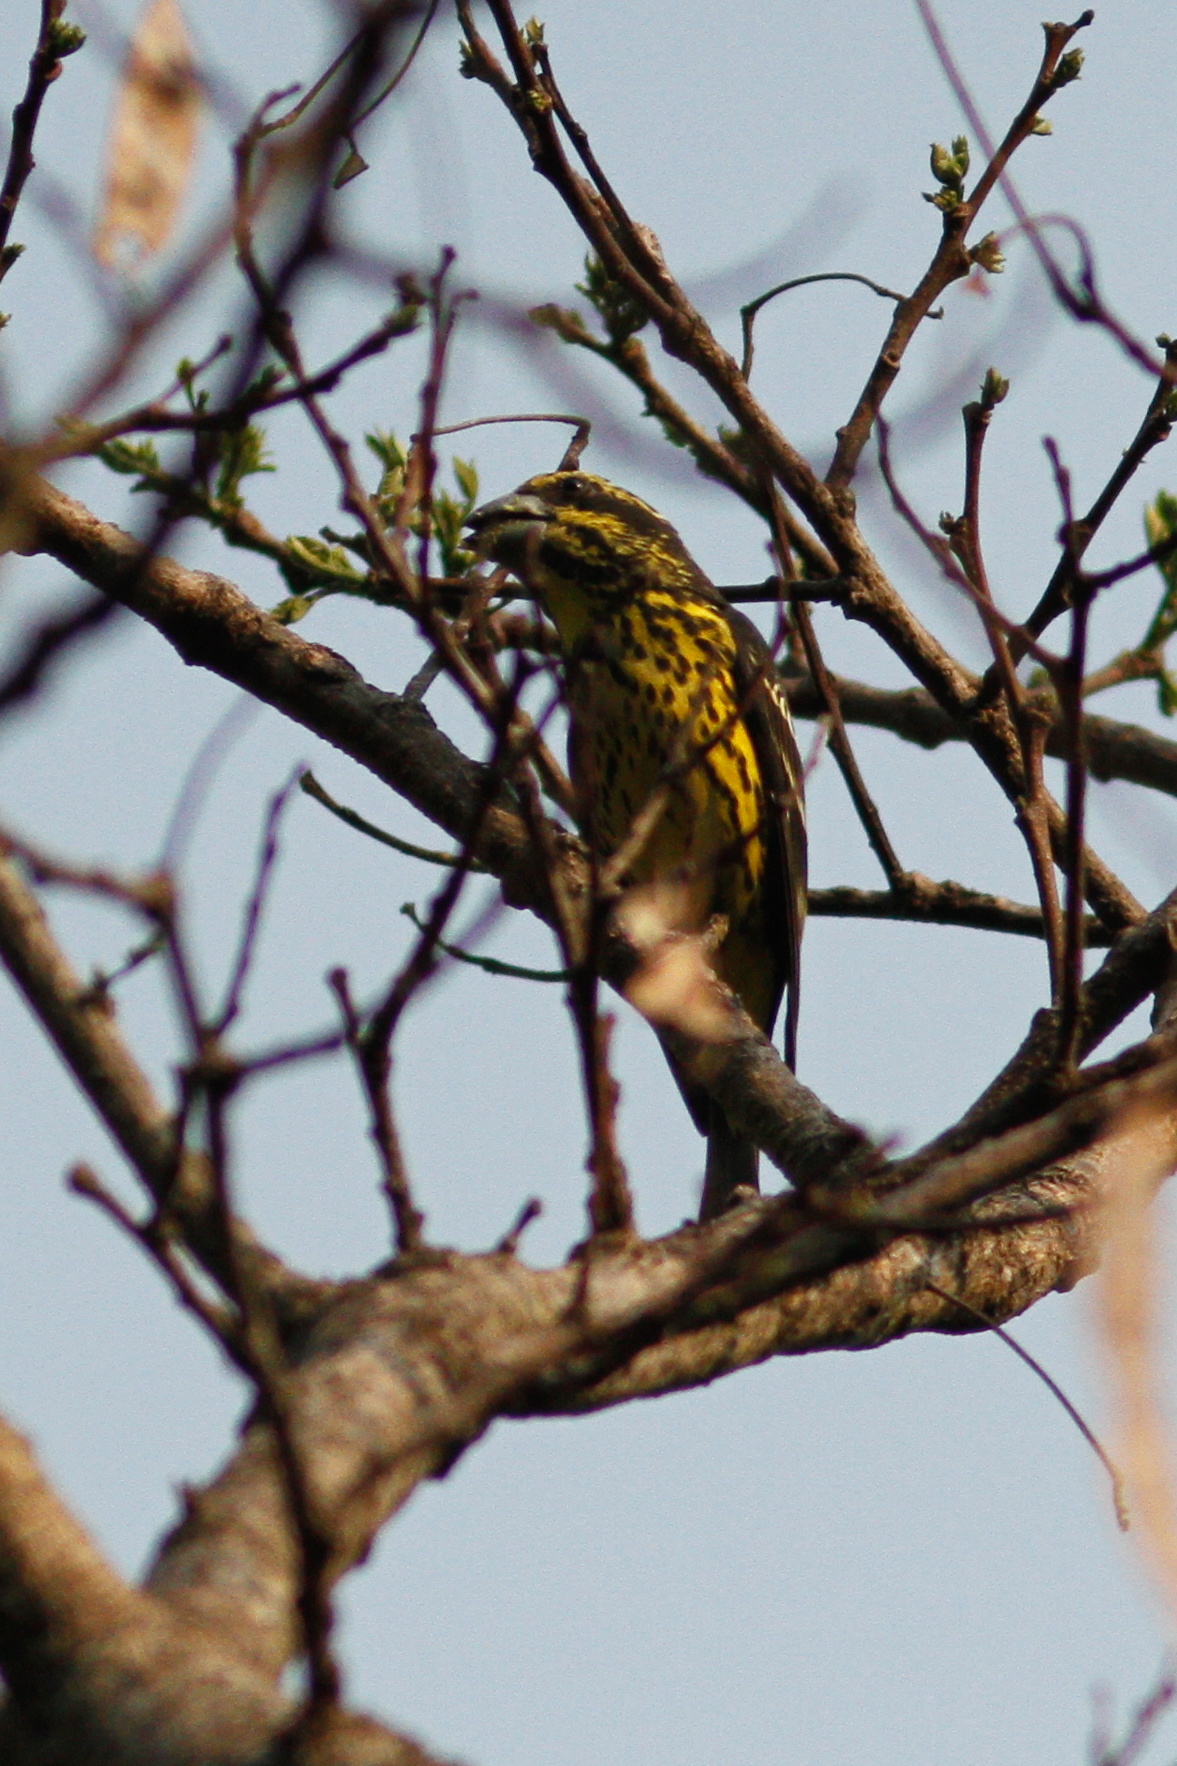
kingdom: Animalia
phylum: Chordata
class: Aves
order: Passeriformes
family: Fringillidae
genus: Mycerobas
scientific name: Mycerobas melanozanthos
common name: Spot-winged grosbeak
